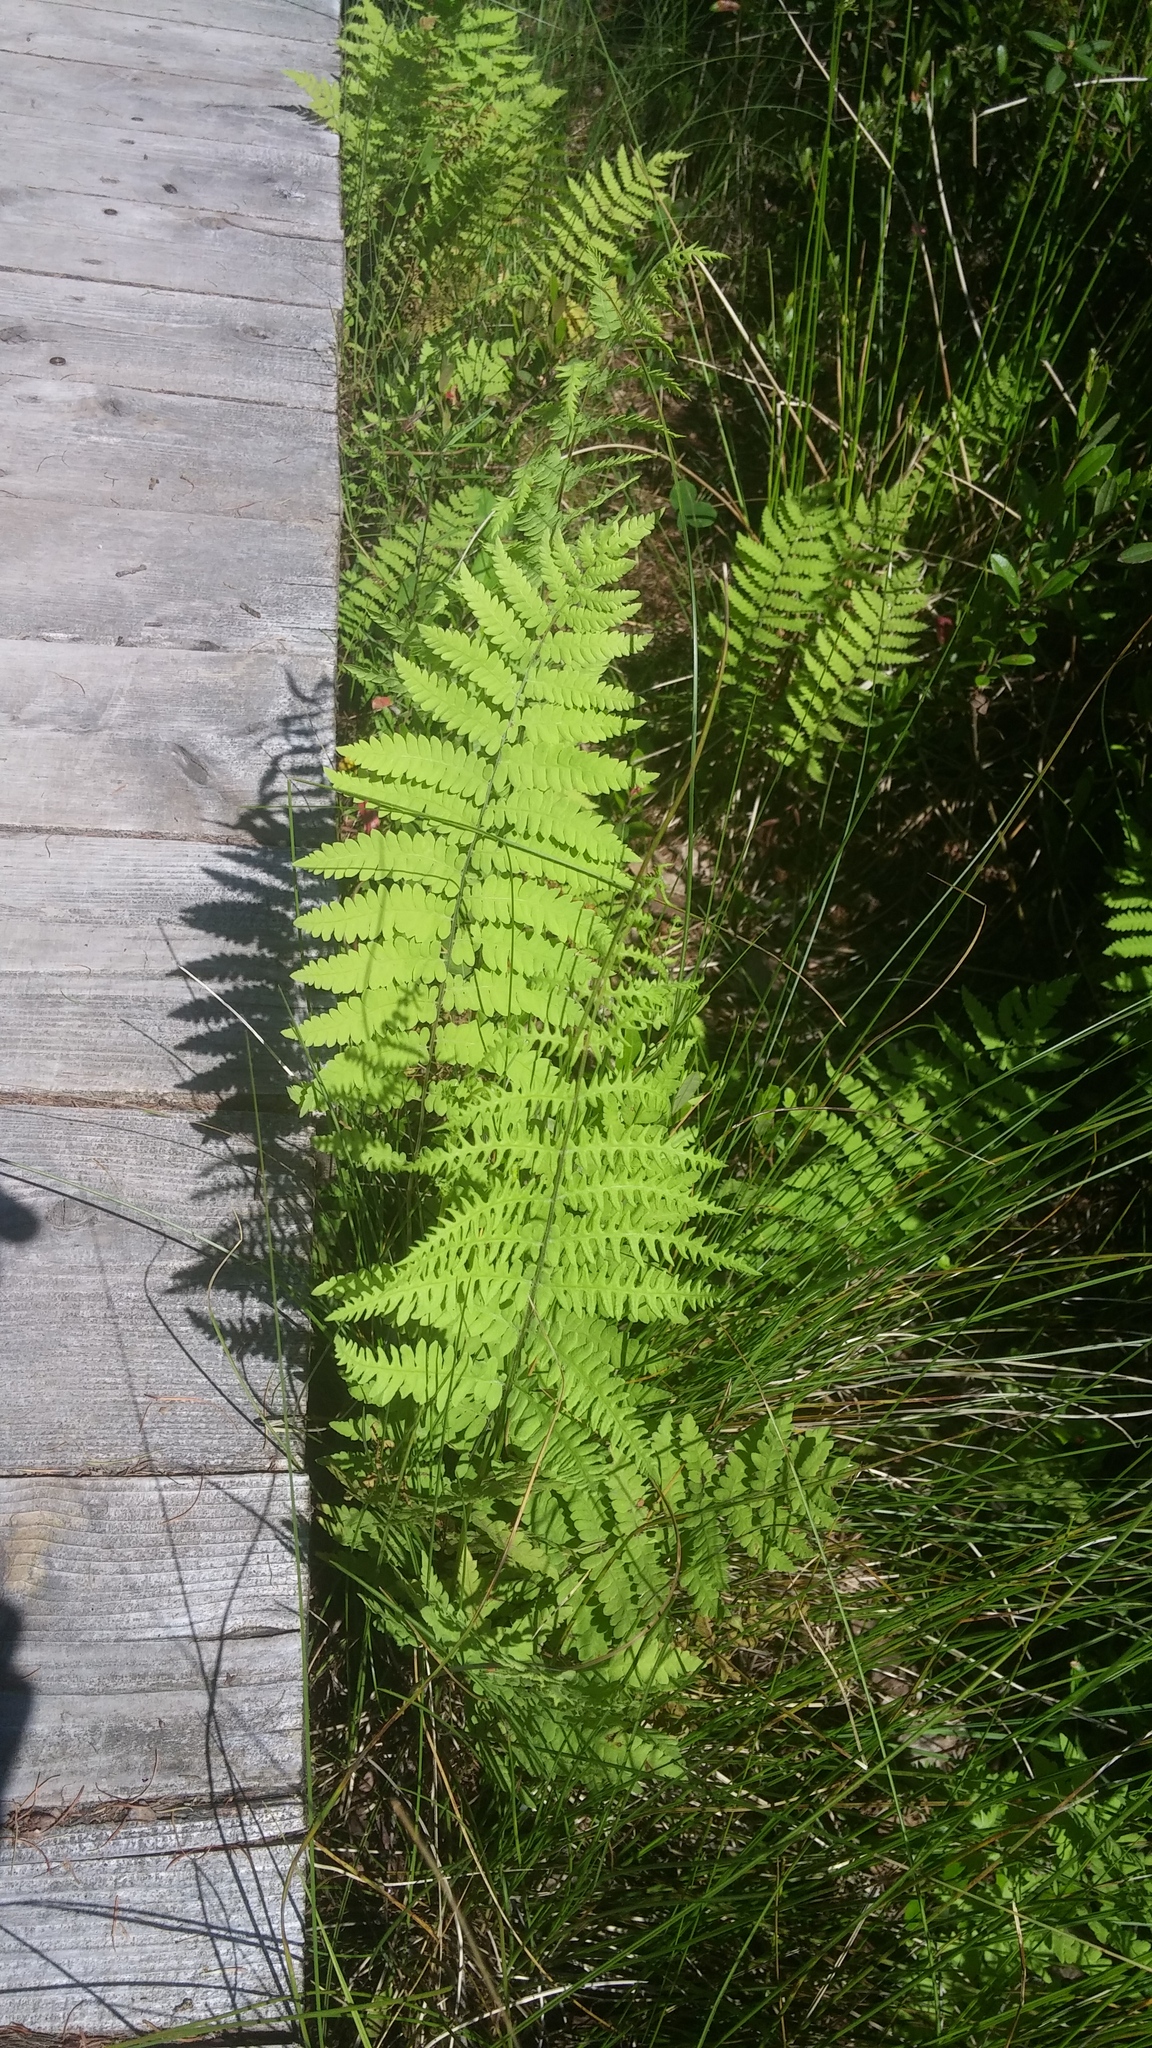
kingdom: Plantae
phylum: Tracheophyta
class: Polypodiopsida
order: Polypodiales
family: Thelypteridaceae
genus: Thelypteris
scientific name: Thelypteris palustris
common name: Marsh fern
